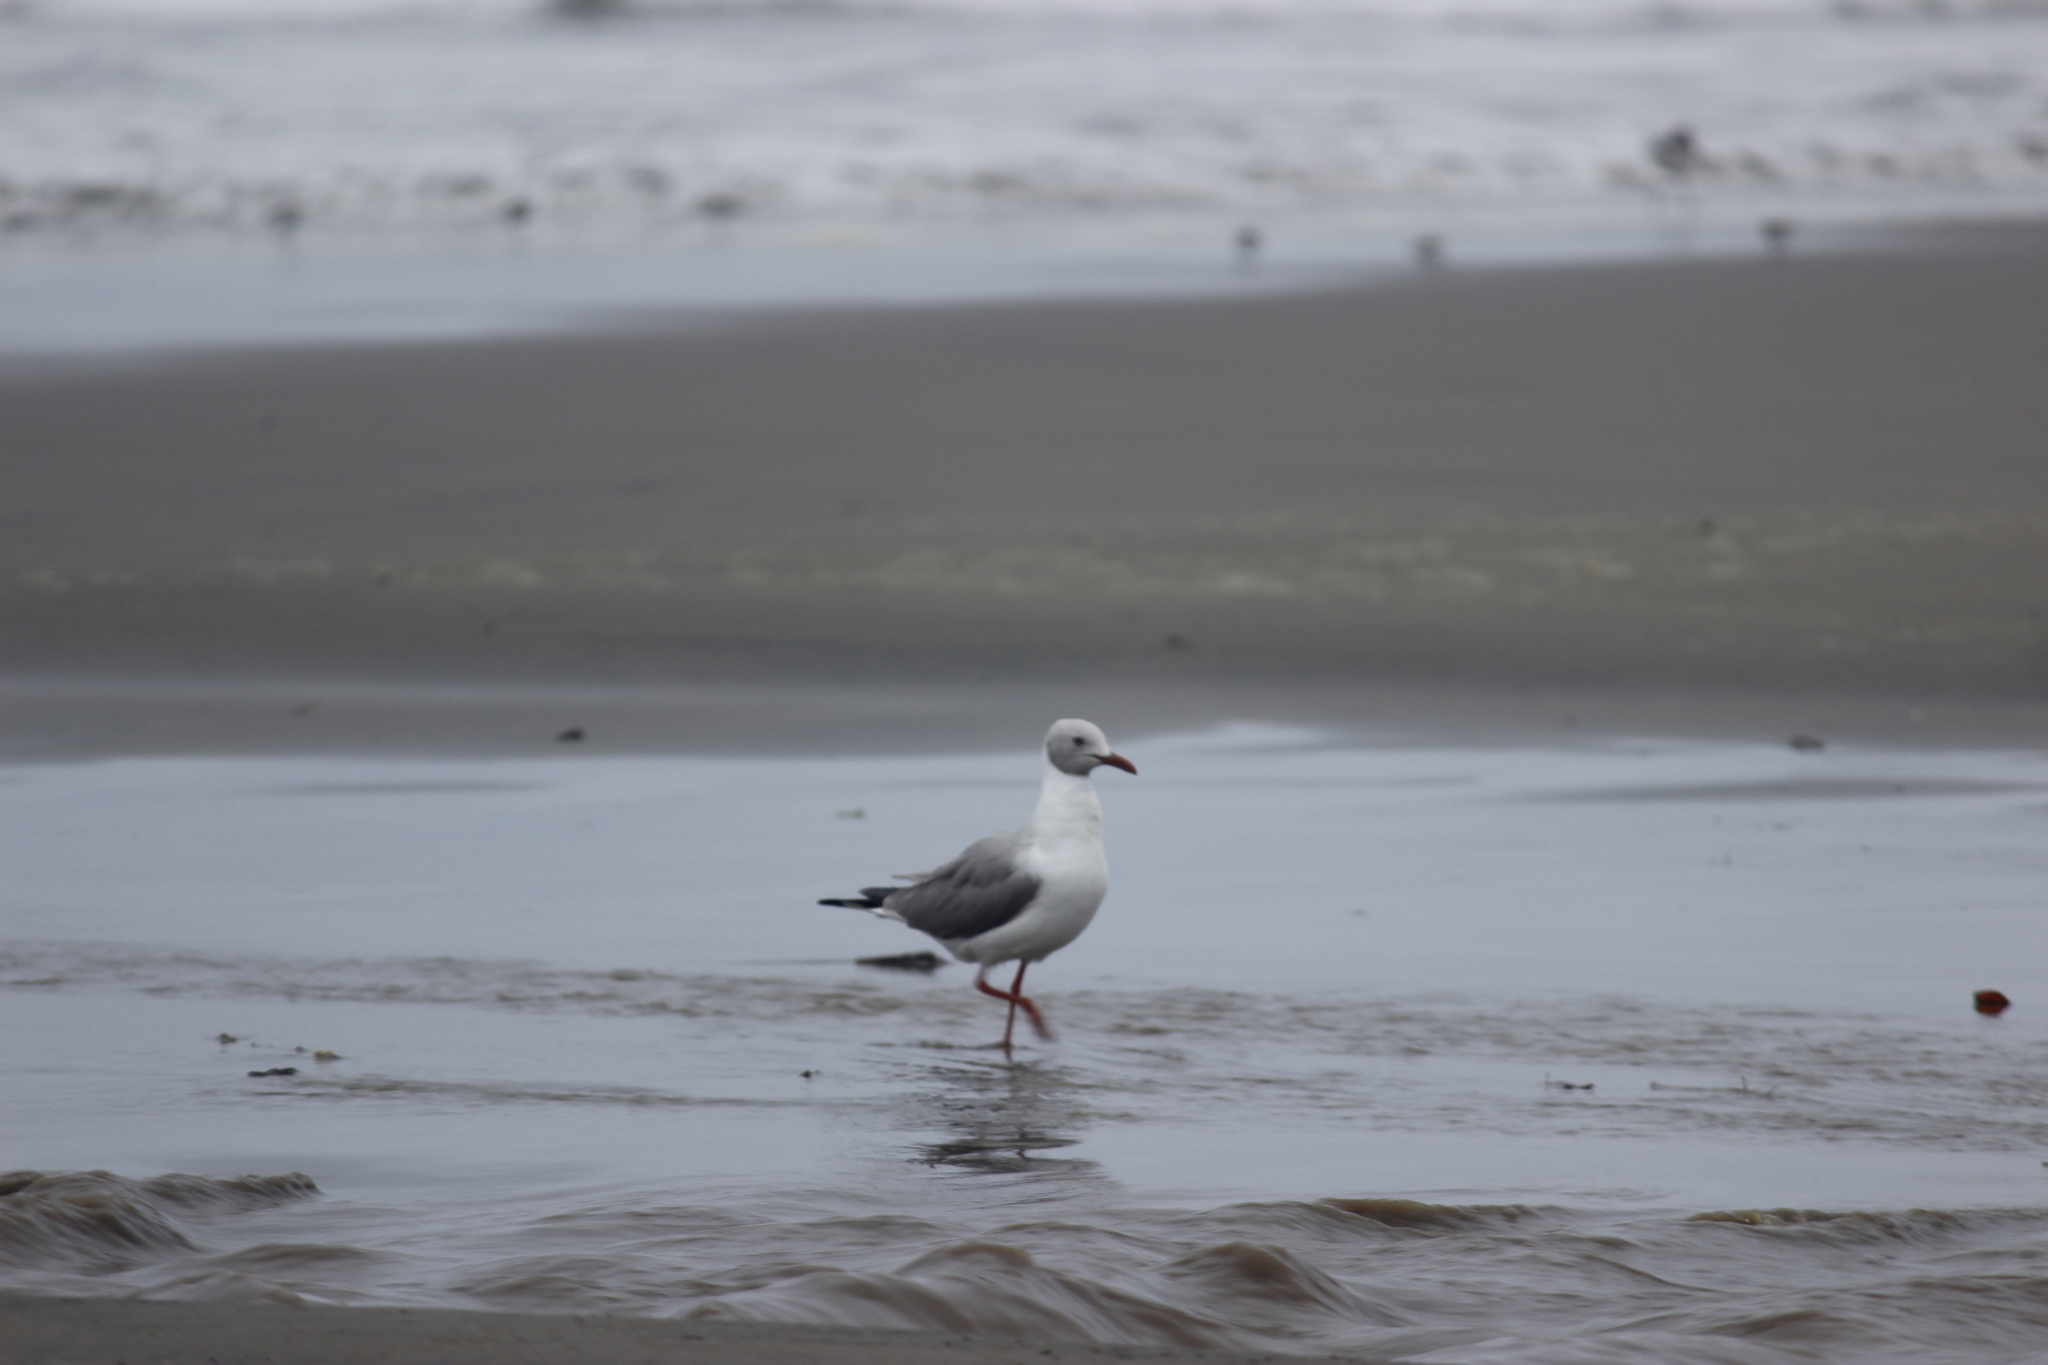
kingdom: Animalia
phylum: Chordata
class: Aves
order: Charadriiformes
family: Laridae
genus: Chroicocephalus
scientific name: Chroicocephalus cirrocephalus
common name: Grey-headed gull
